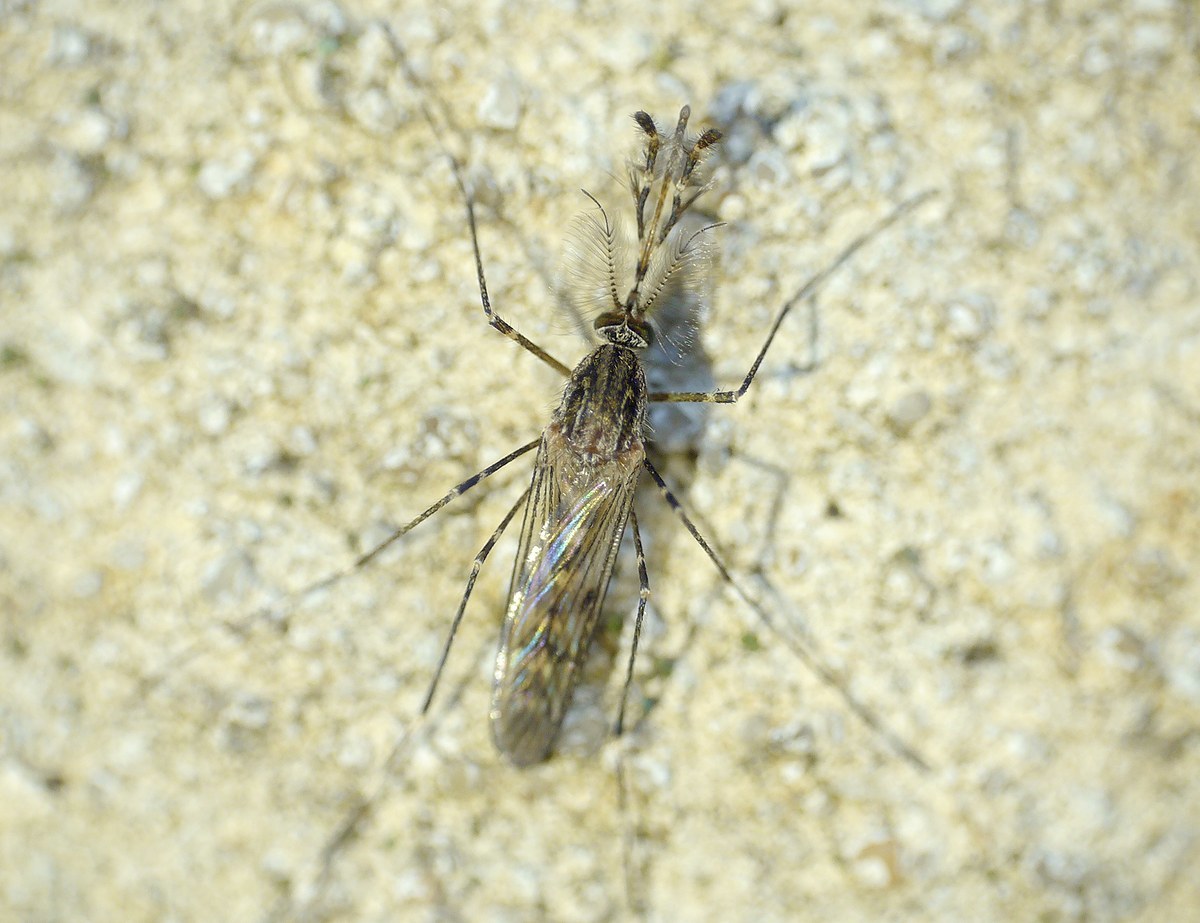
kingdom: Animalia
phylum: Arthropoda
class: Insecta
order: Diptera
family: Culicidae
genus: Culiseta
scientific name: Culiseta annulata
